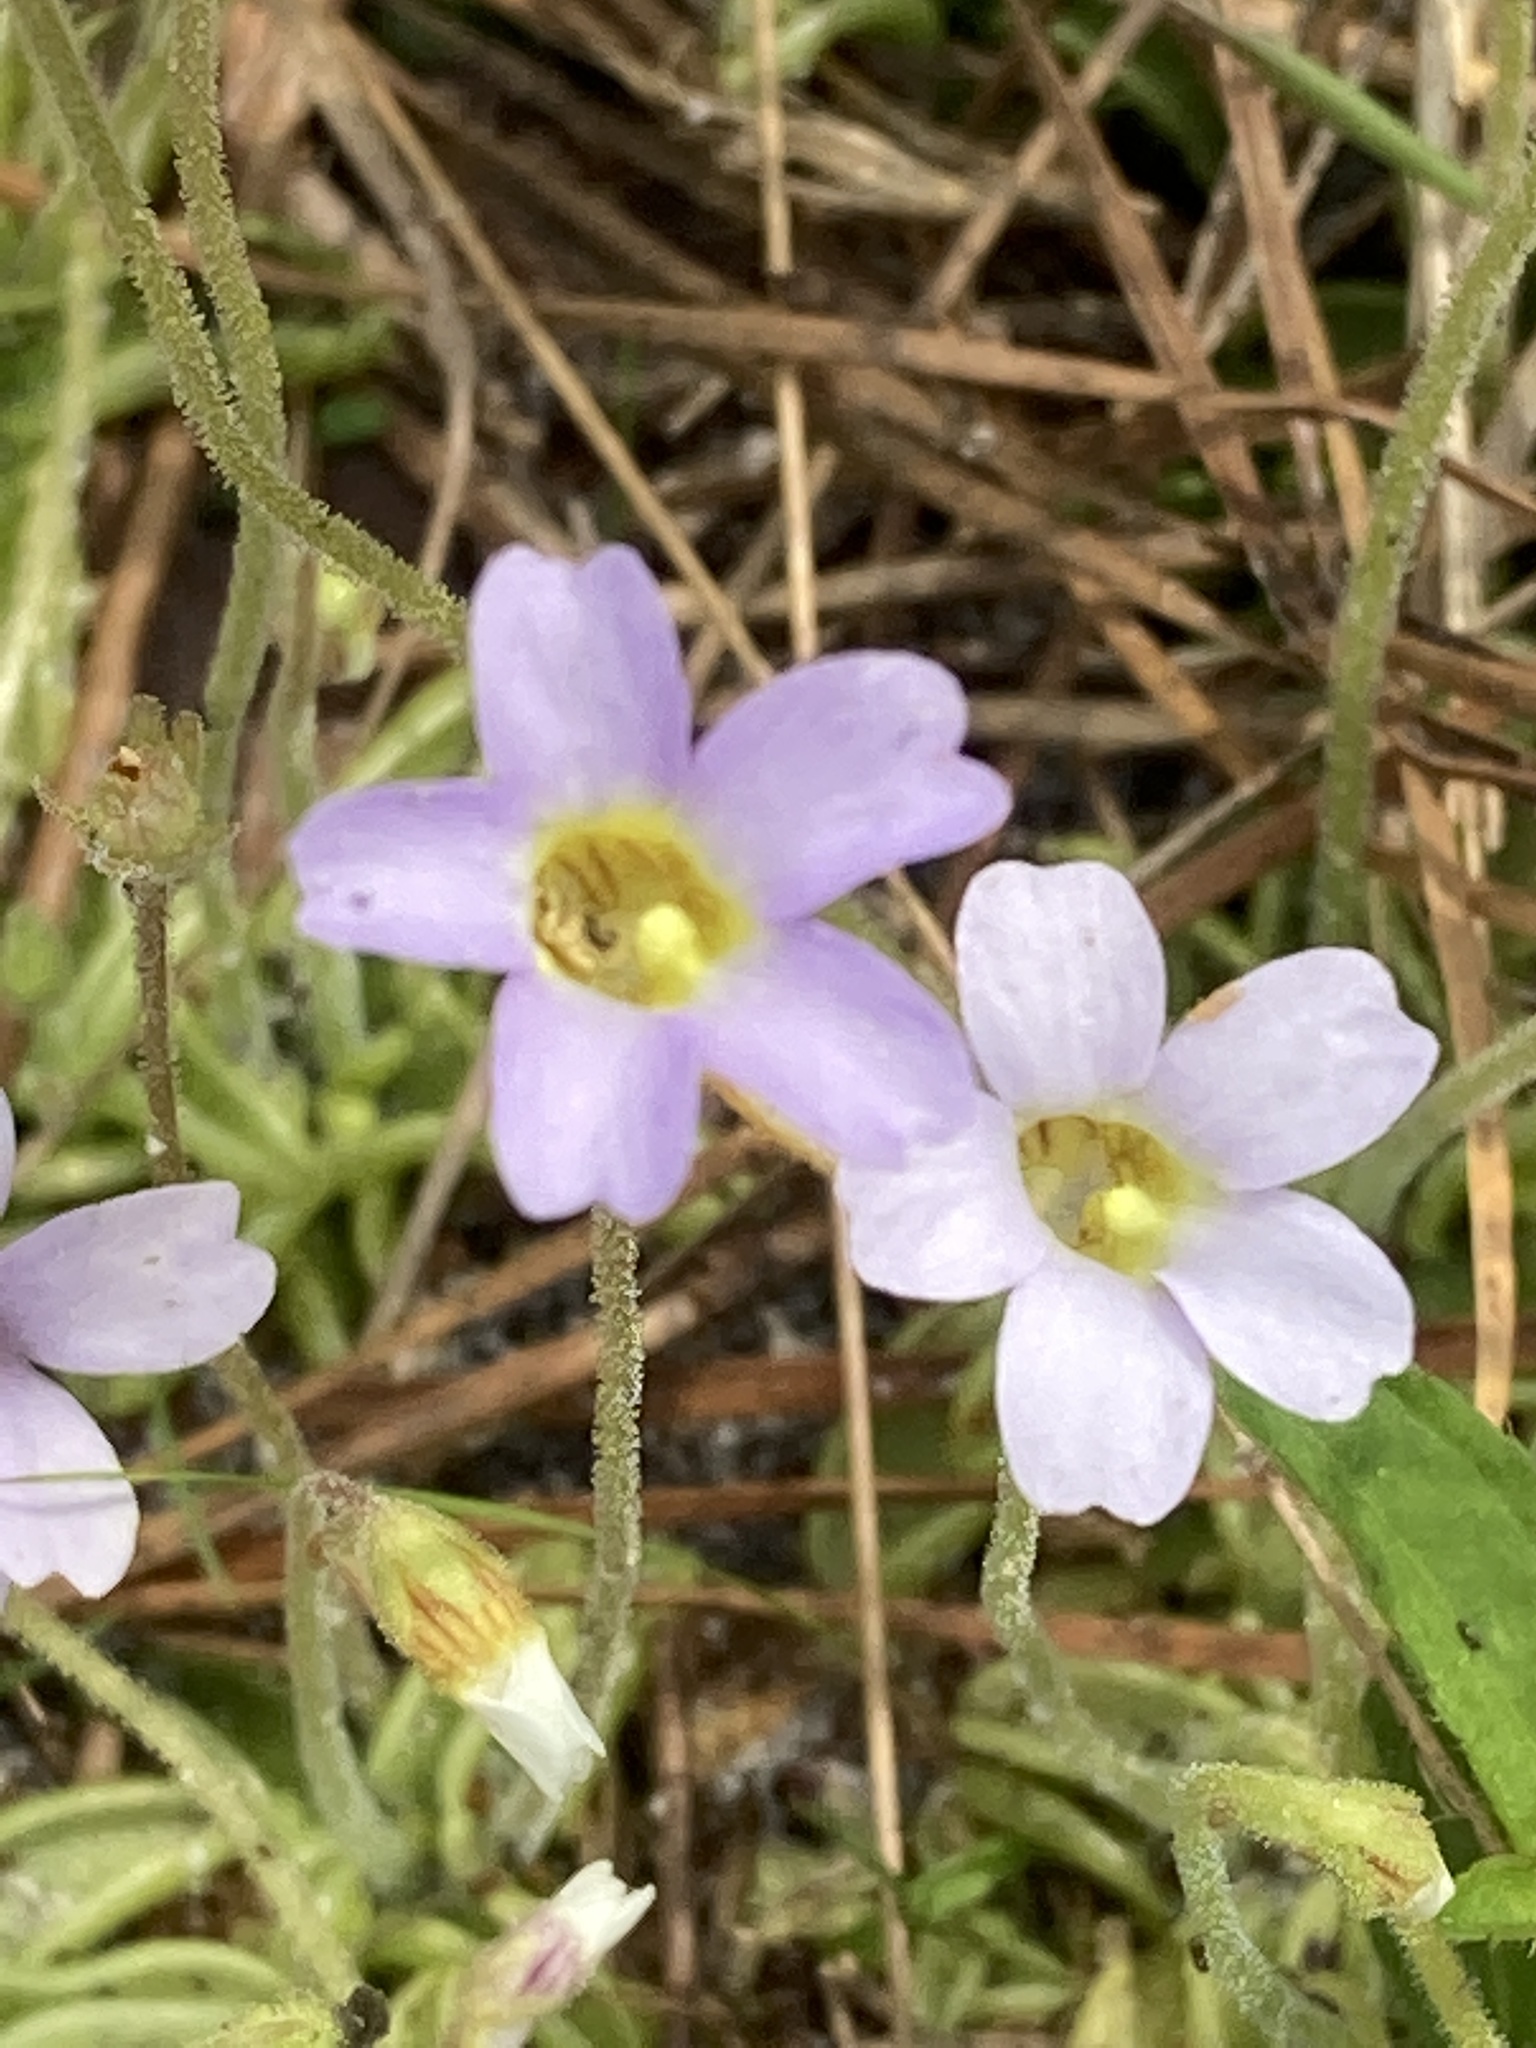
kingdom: Plantae
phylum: Tracheophyta
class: Magnoliopsida
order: Lamiales
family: Lentibulariaceae
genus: Pinguicula
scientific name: Pinguicula pumila
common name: Small butterwort
